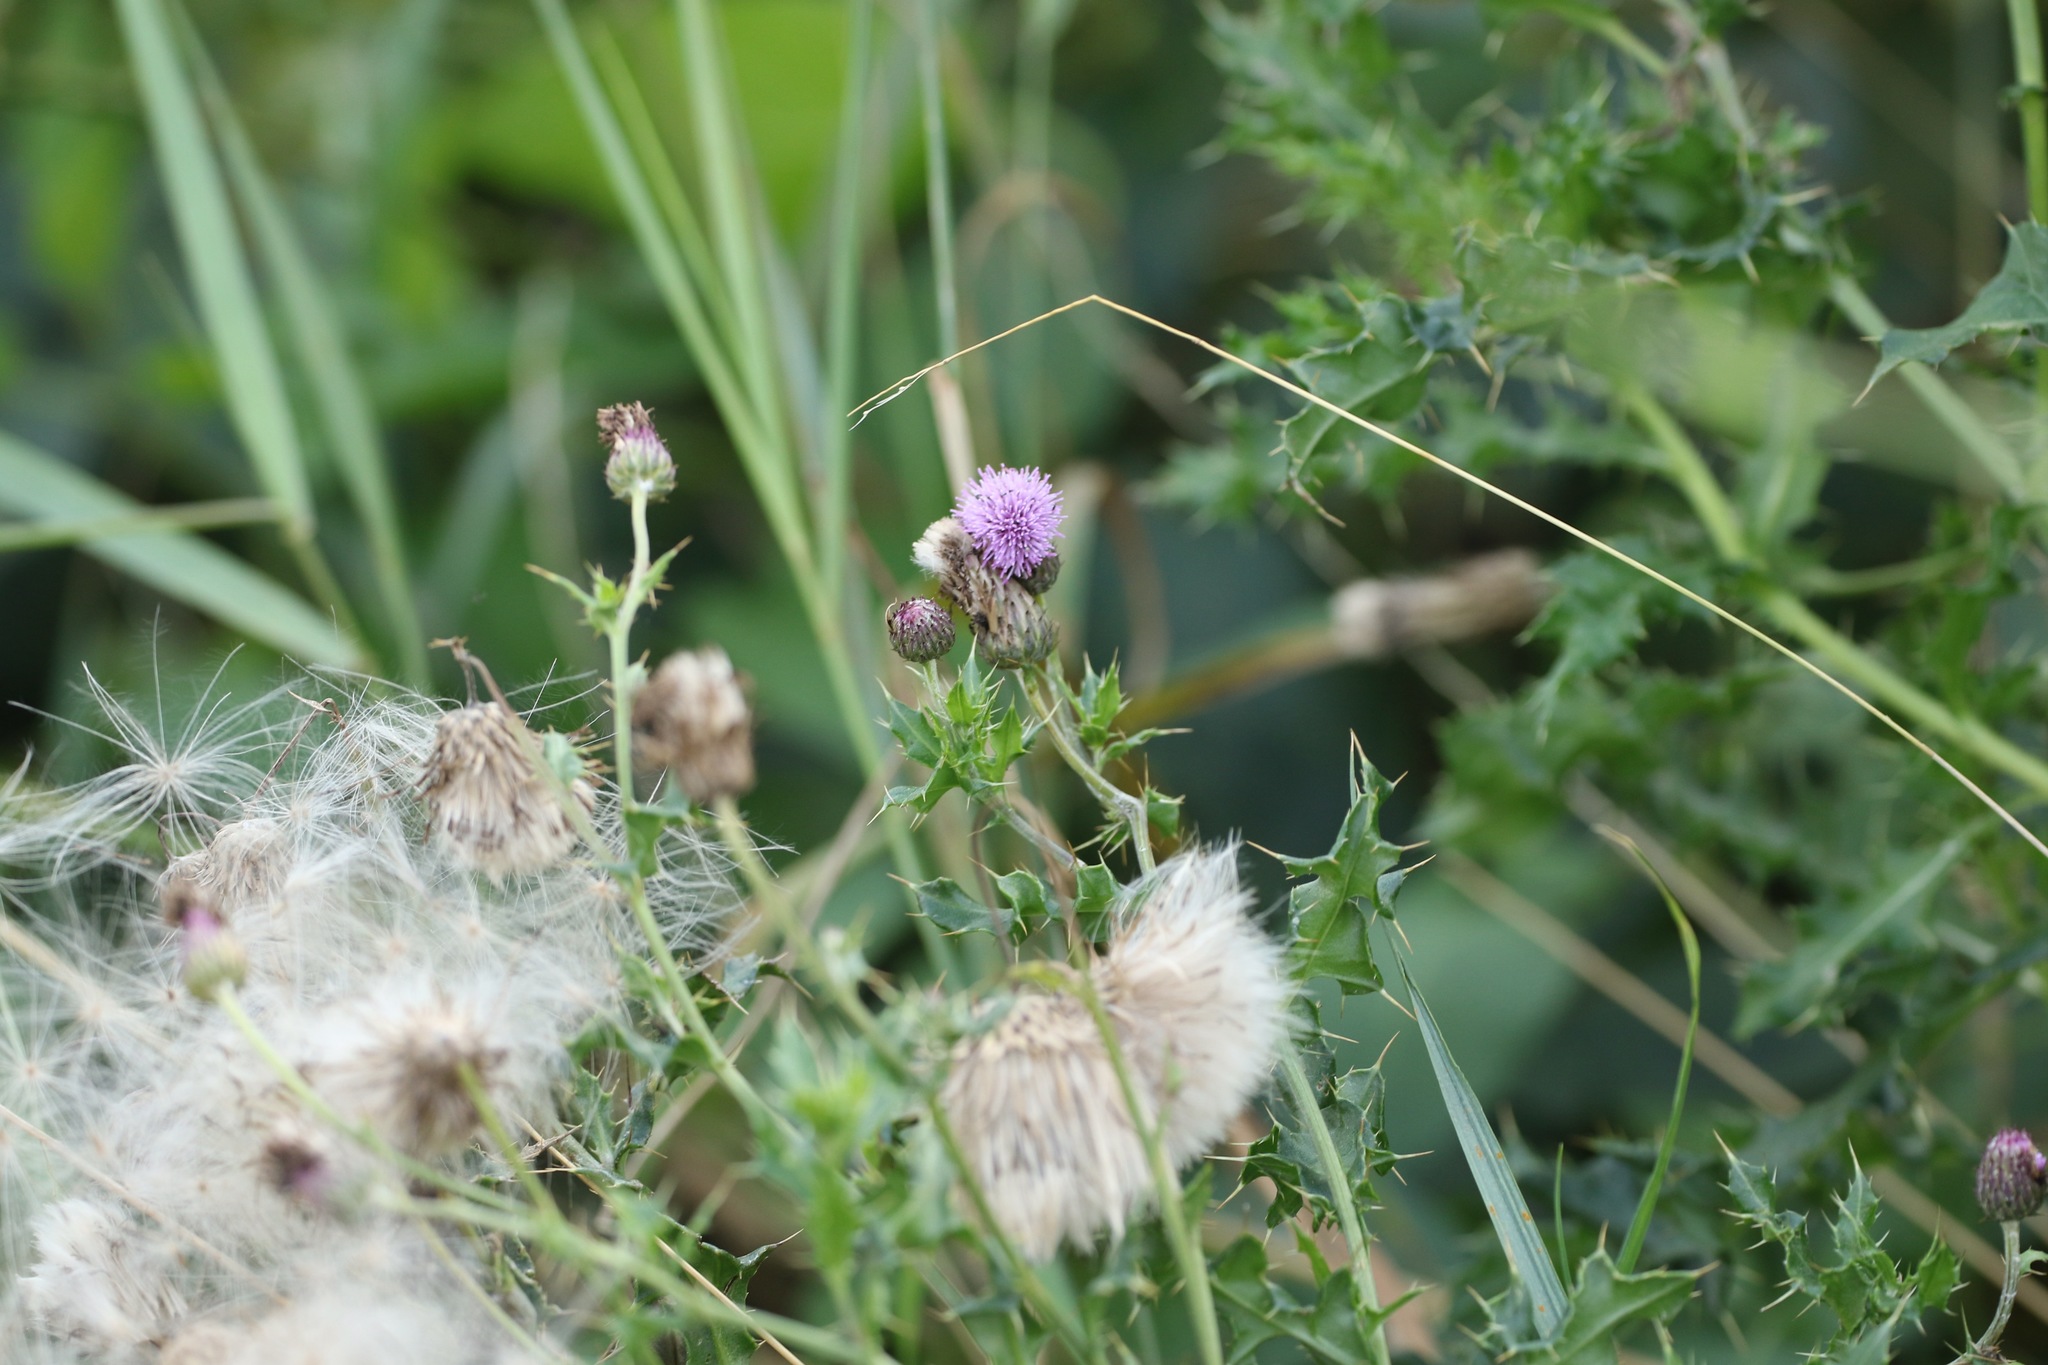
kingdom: Plantae
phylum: Tracheophyta
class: Magnoliopsida
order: Asterales
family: Asteraceae
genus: Cirsium
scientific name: Cirsium arvense
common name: Creeping thistle
